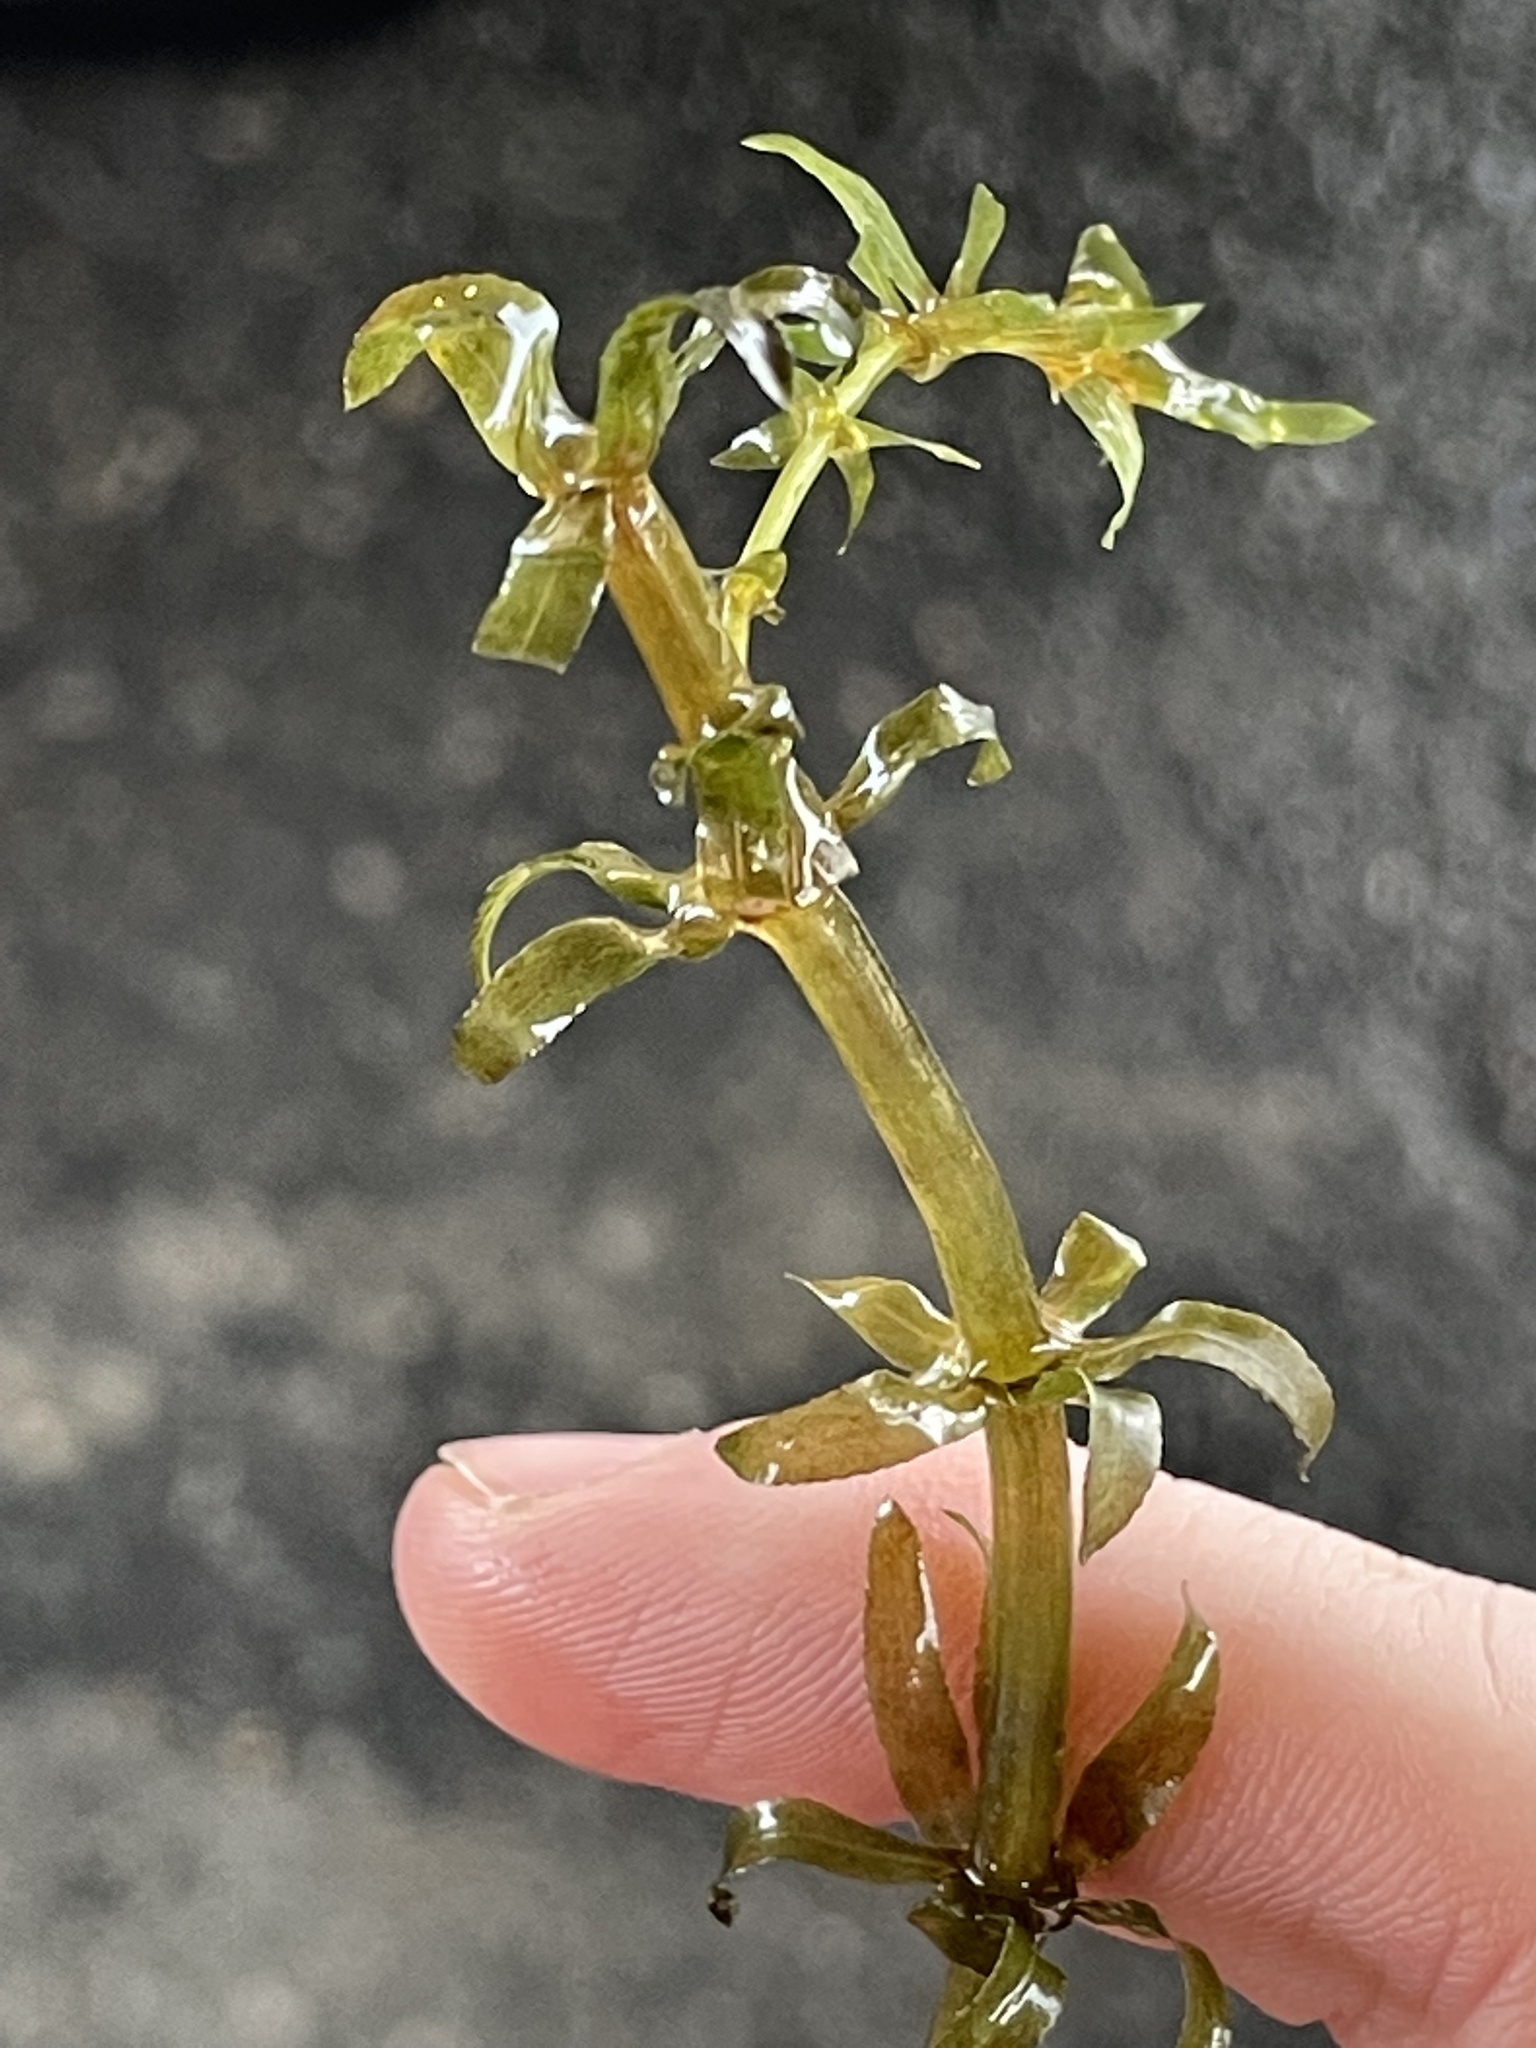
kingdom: Plantae
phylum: Tracheophyta
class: Liliopsida
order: Alismatales
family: Hydrocharitaceae
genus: Hydrilla
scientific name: Hydrilla verticillata
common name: Florida-elodea
